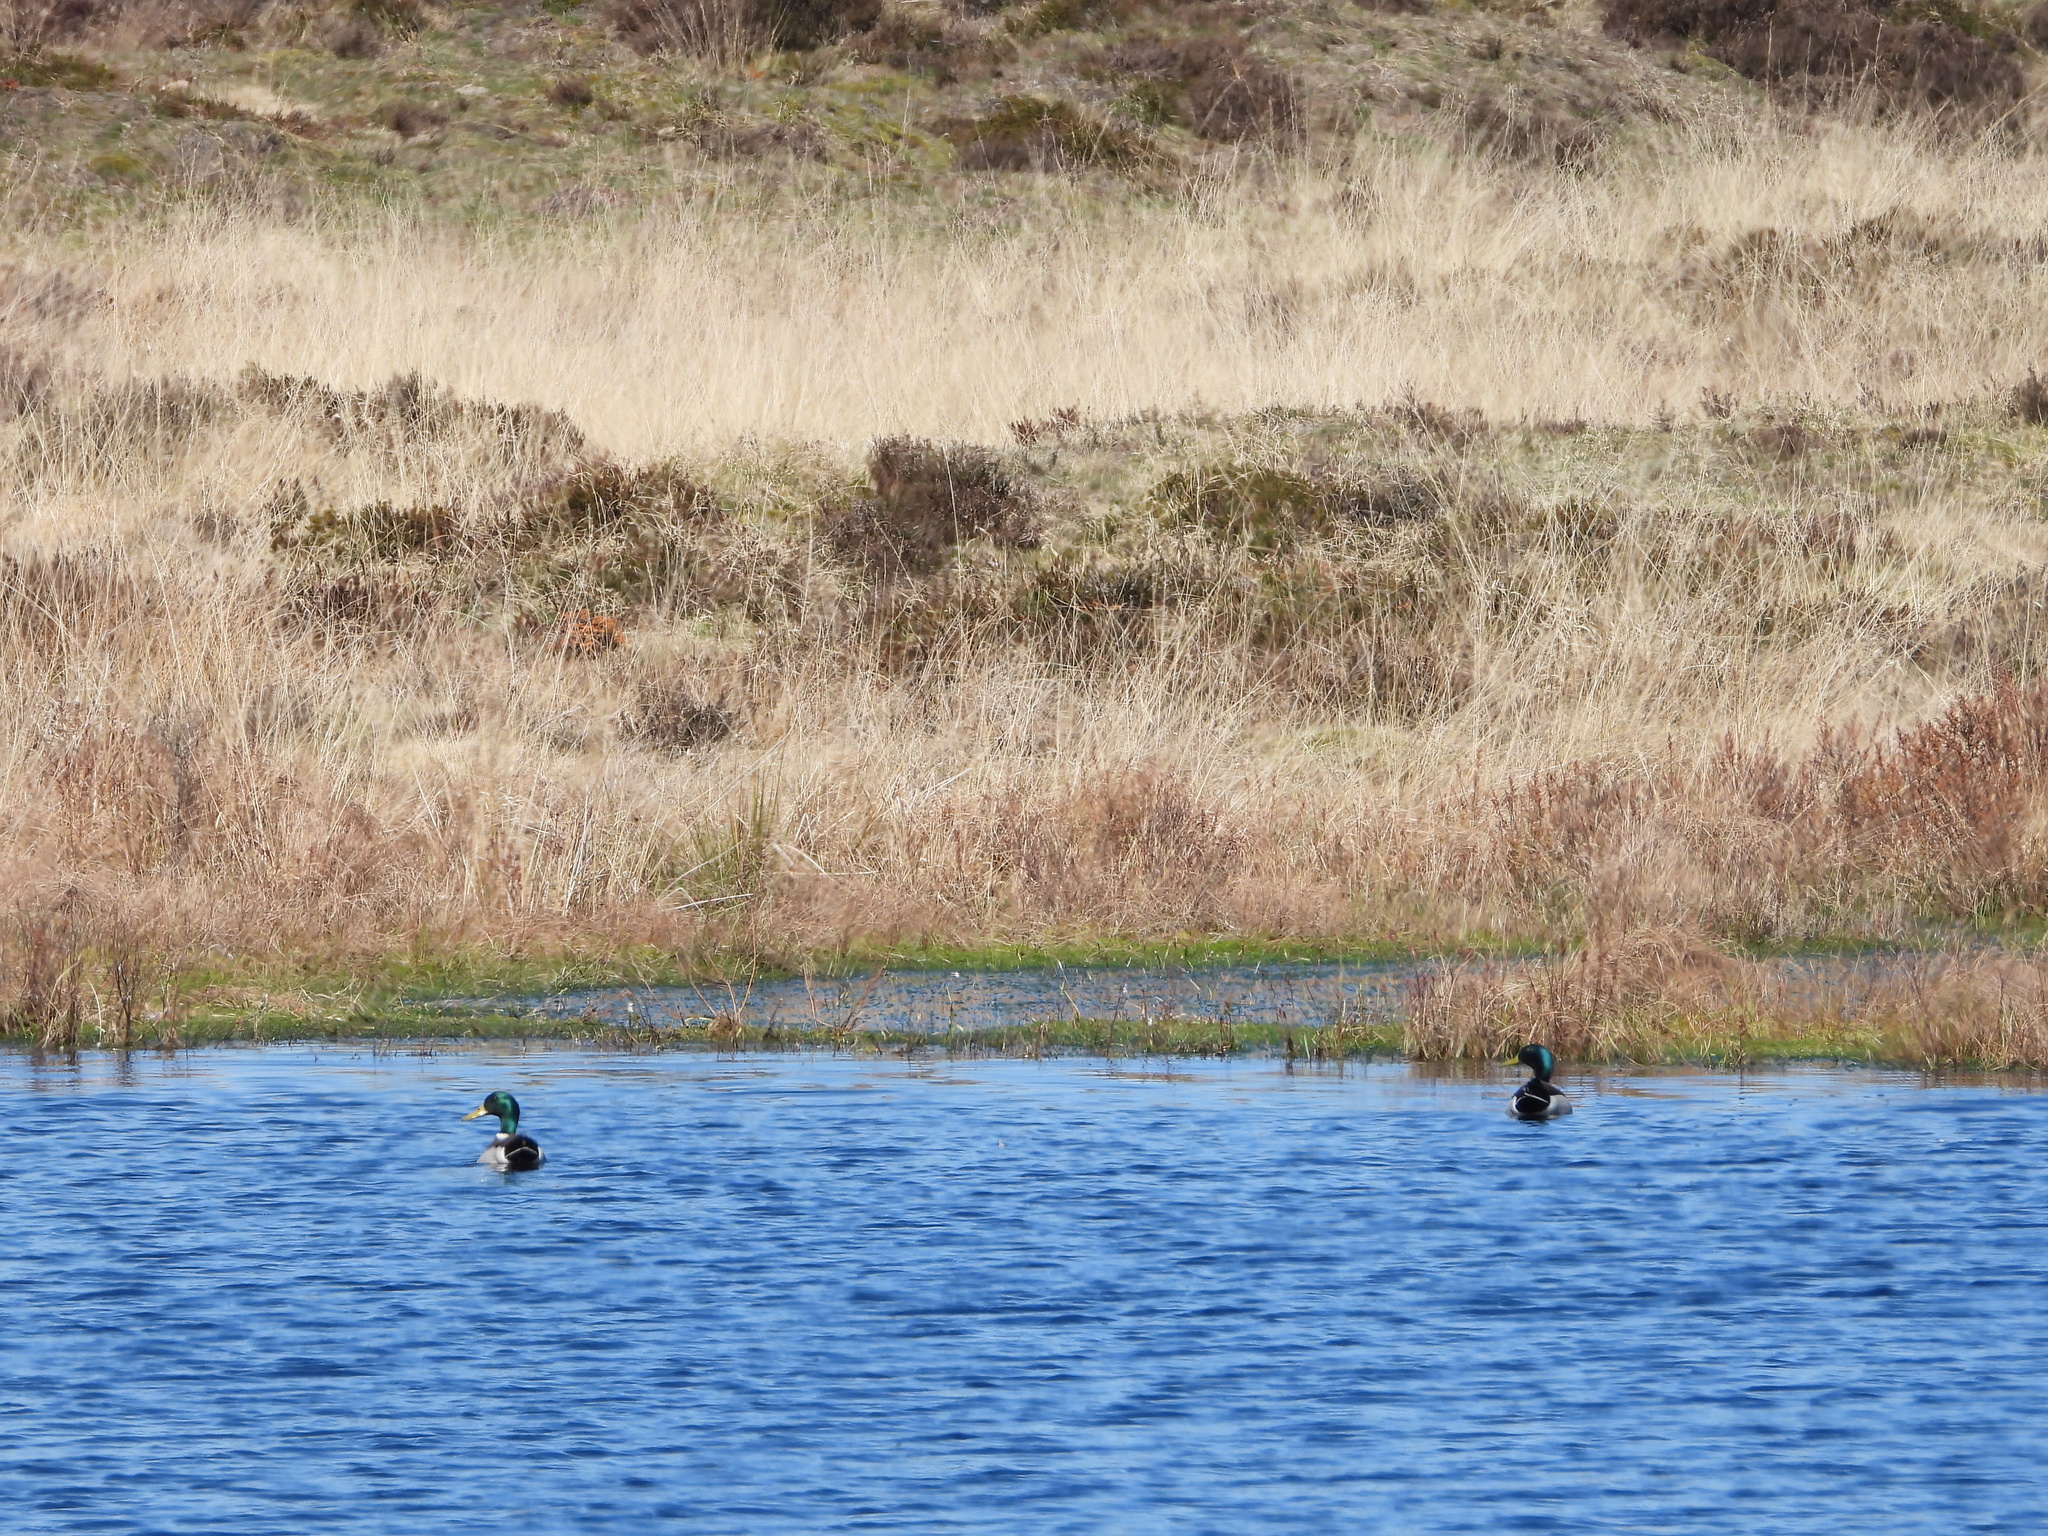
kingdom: Animalia
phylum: Chordata
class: Aves
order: Anseriformes
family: Anatidae
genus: Anas
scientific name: Anas platyrhynchos
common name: Mallard
